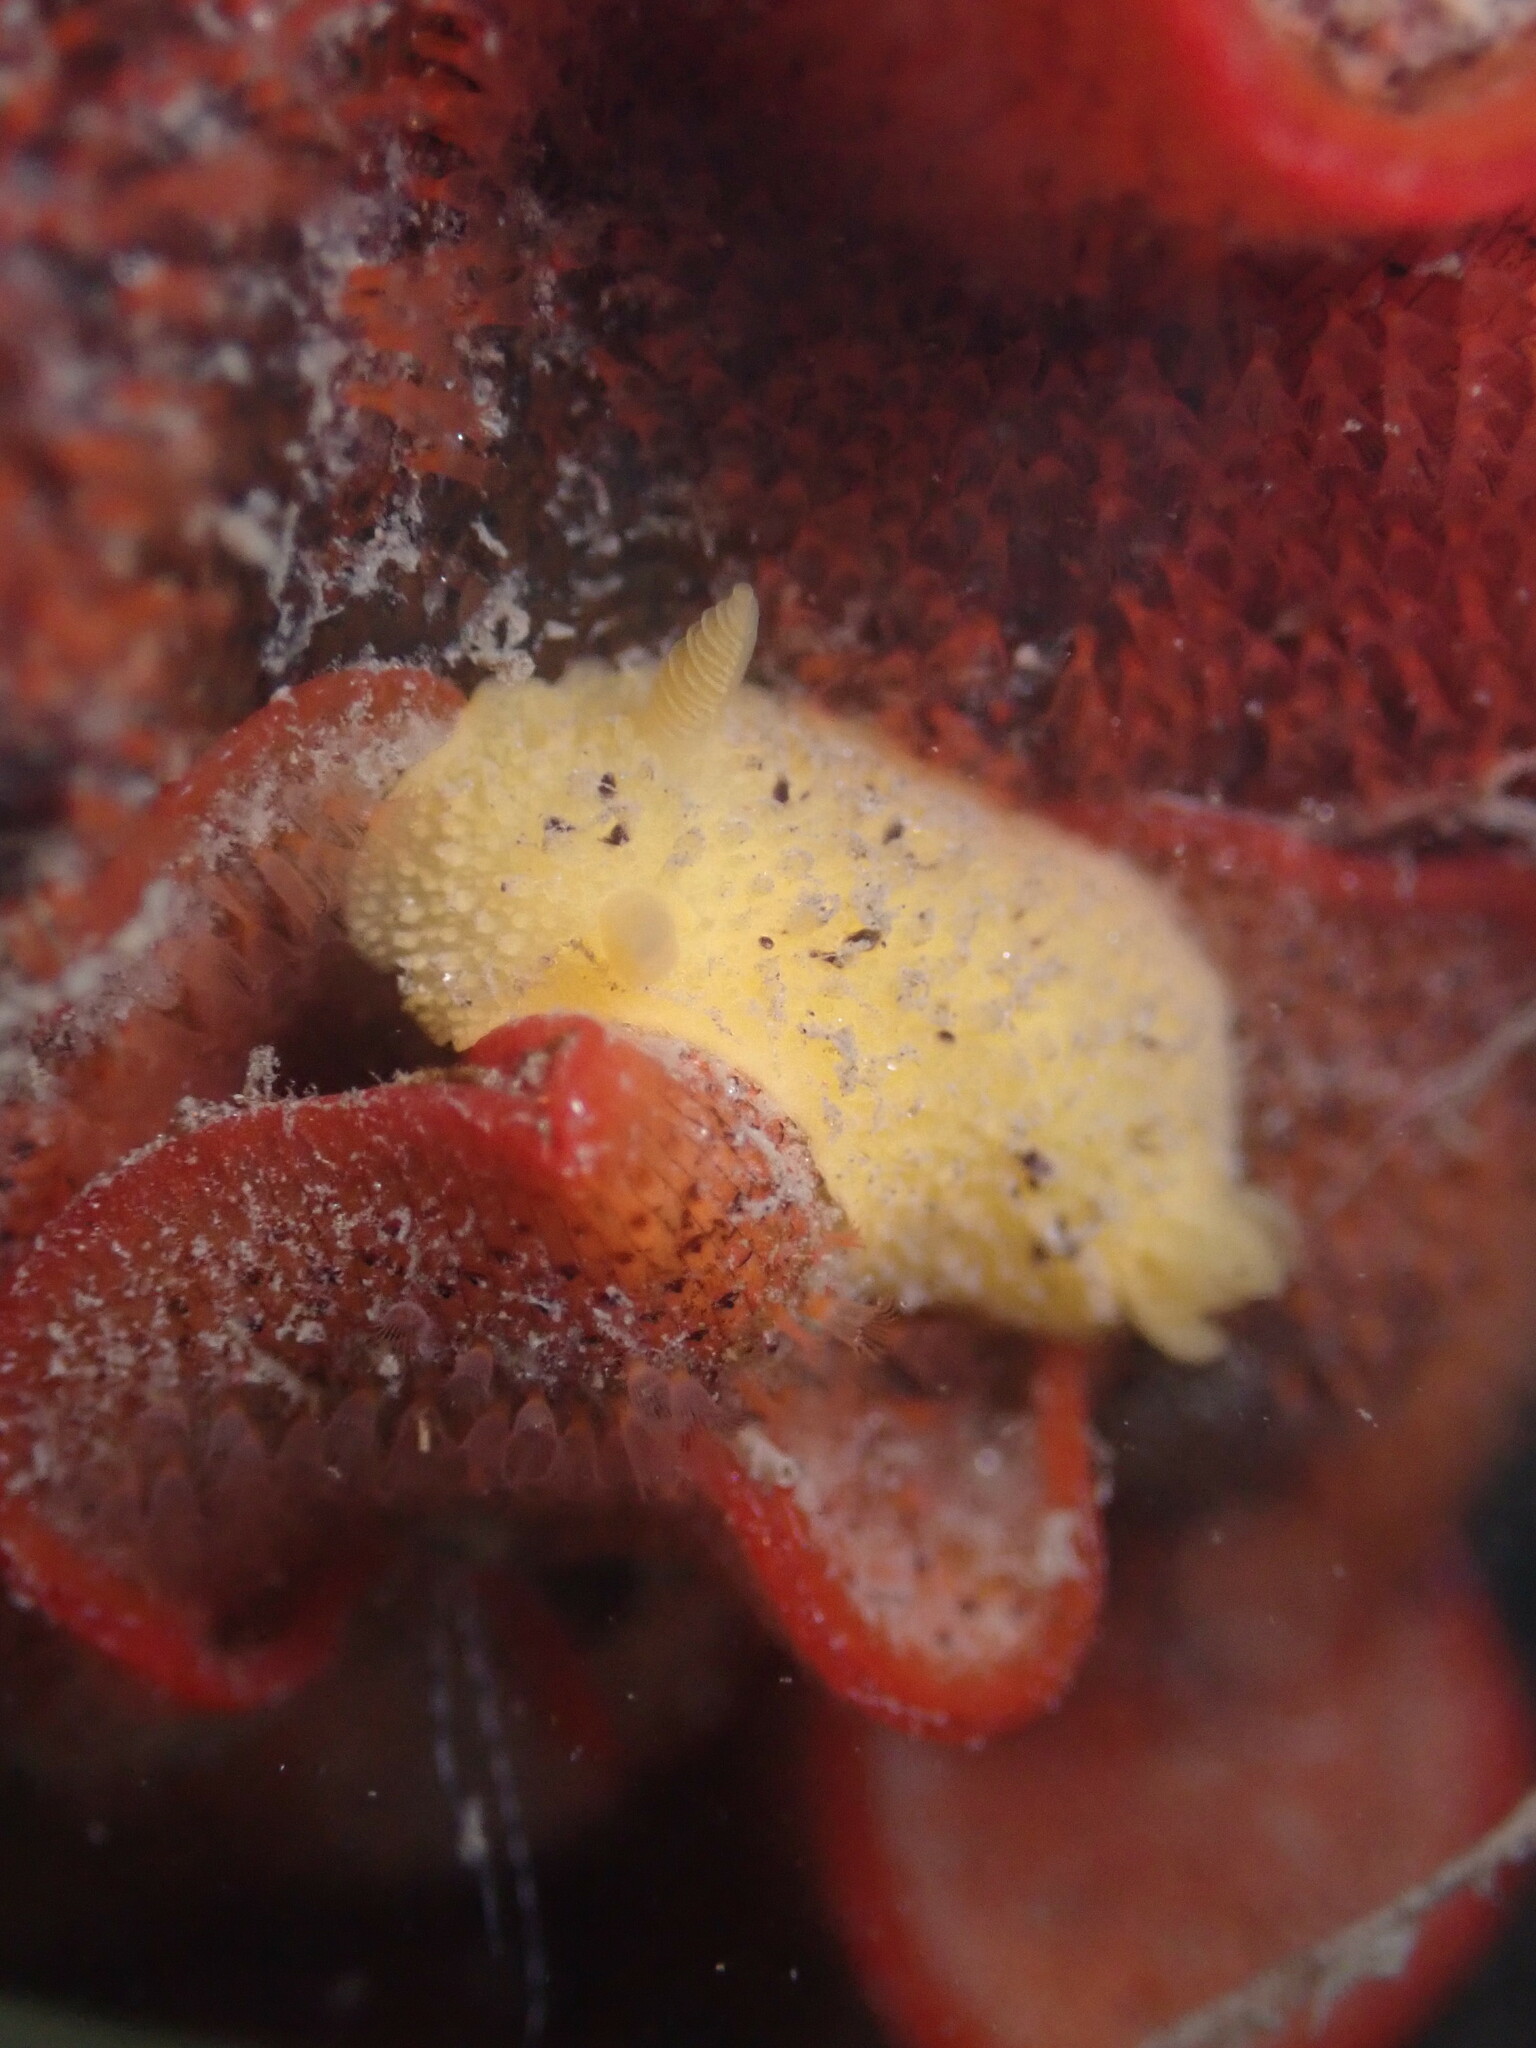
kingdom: Animalia
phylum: Mollusca
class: Gastropoda
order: Nudibranchia
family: Dorididae
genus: Doris
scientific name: Doris montereyensis
